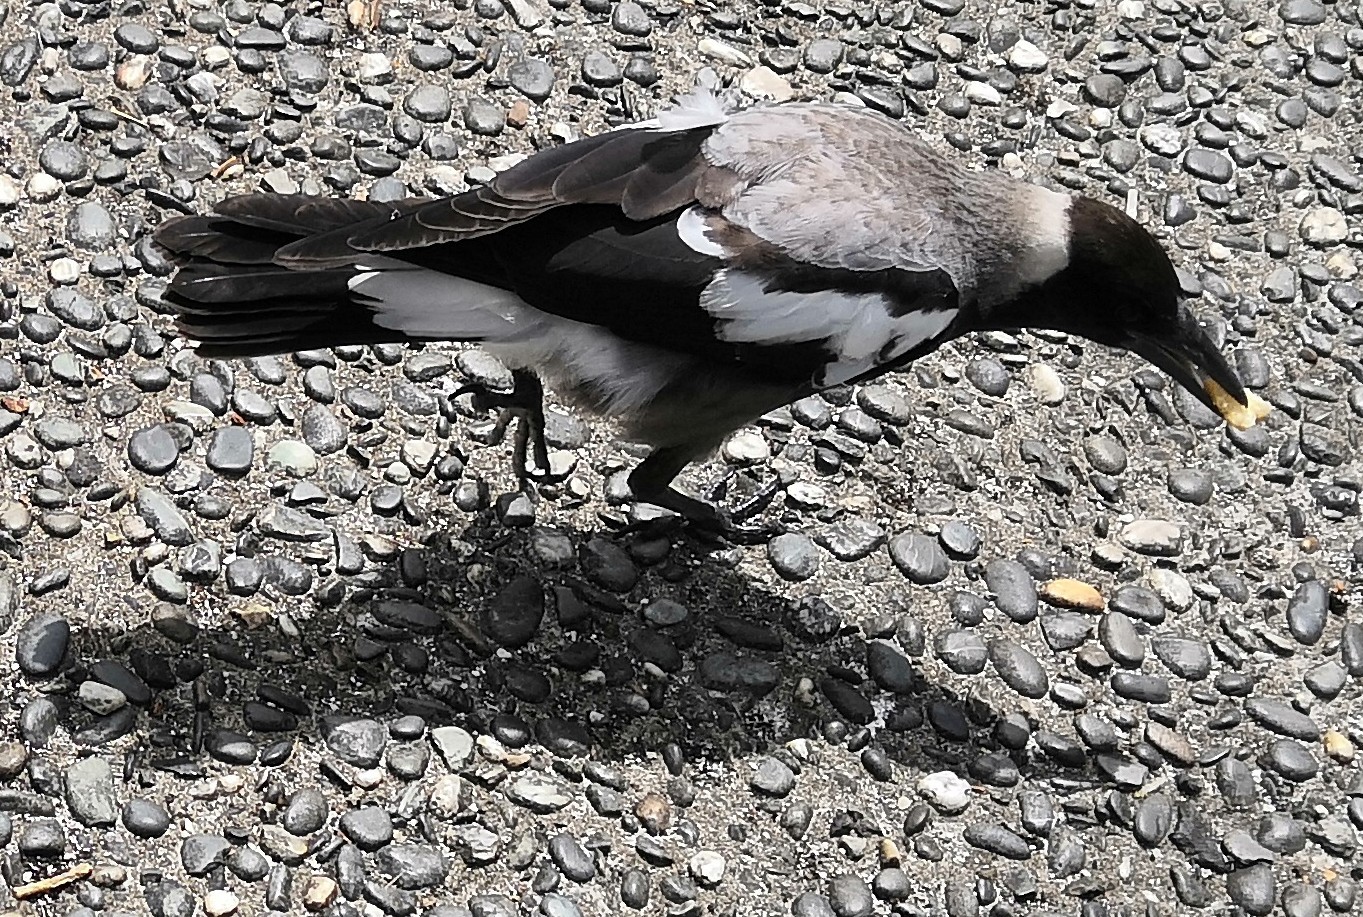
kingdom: Animalia
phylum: Chordata
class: Aves
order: Passeriformes
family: Cracticidae
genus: Gymnorhina
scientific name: Gymnorhina tibicen
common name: Australian magpie
